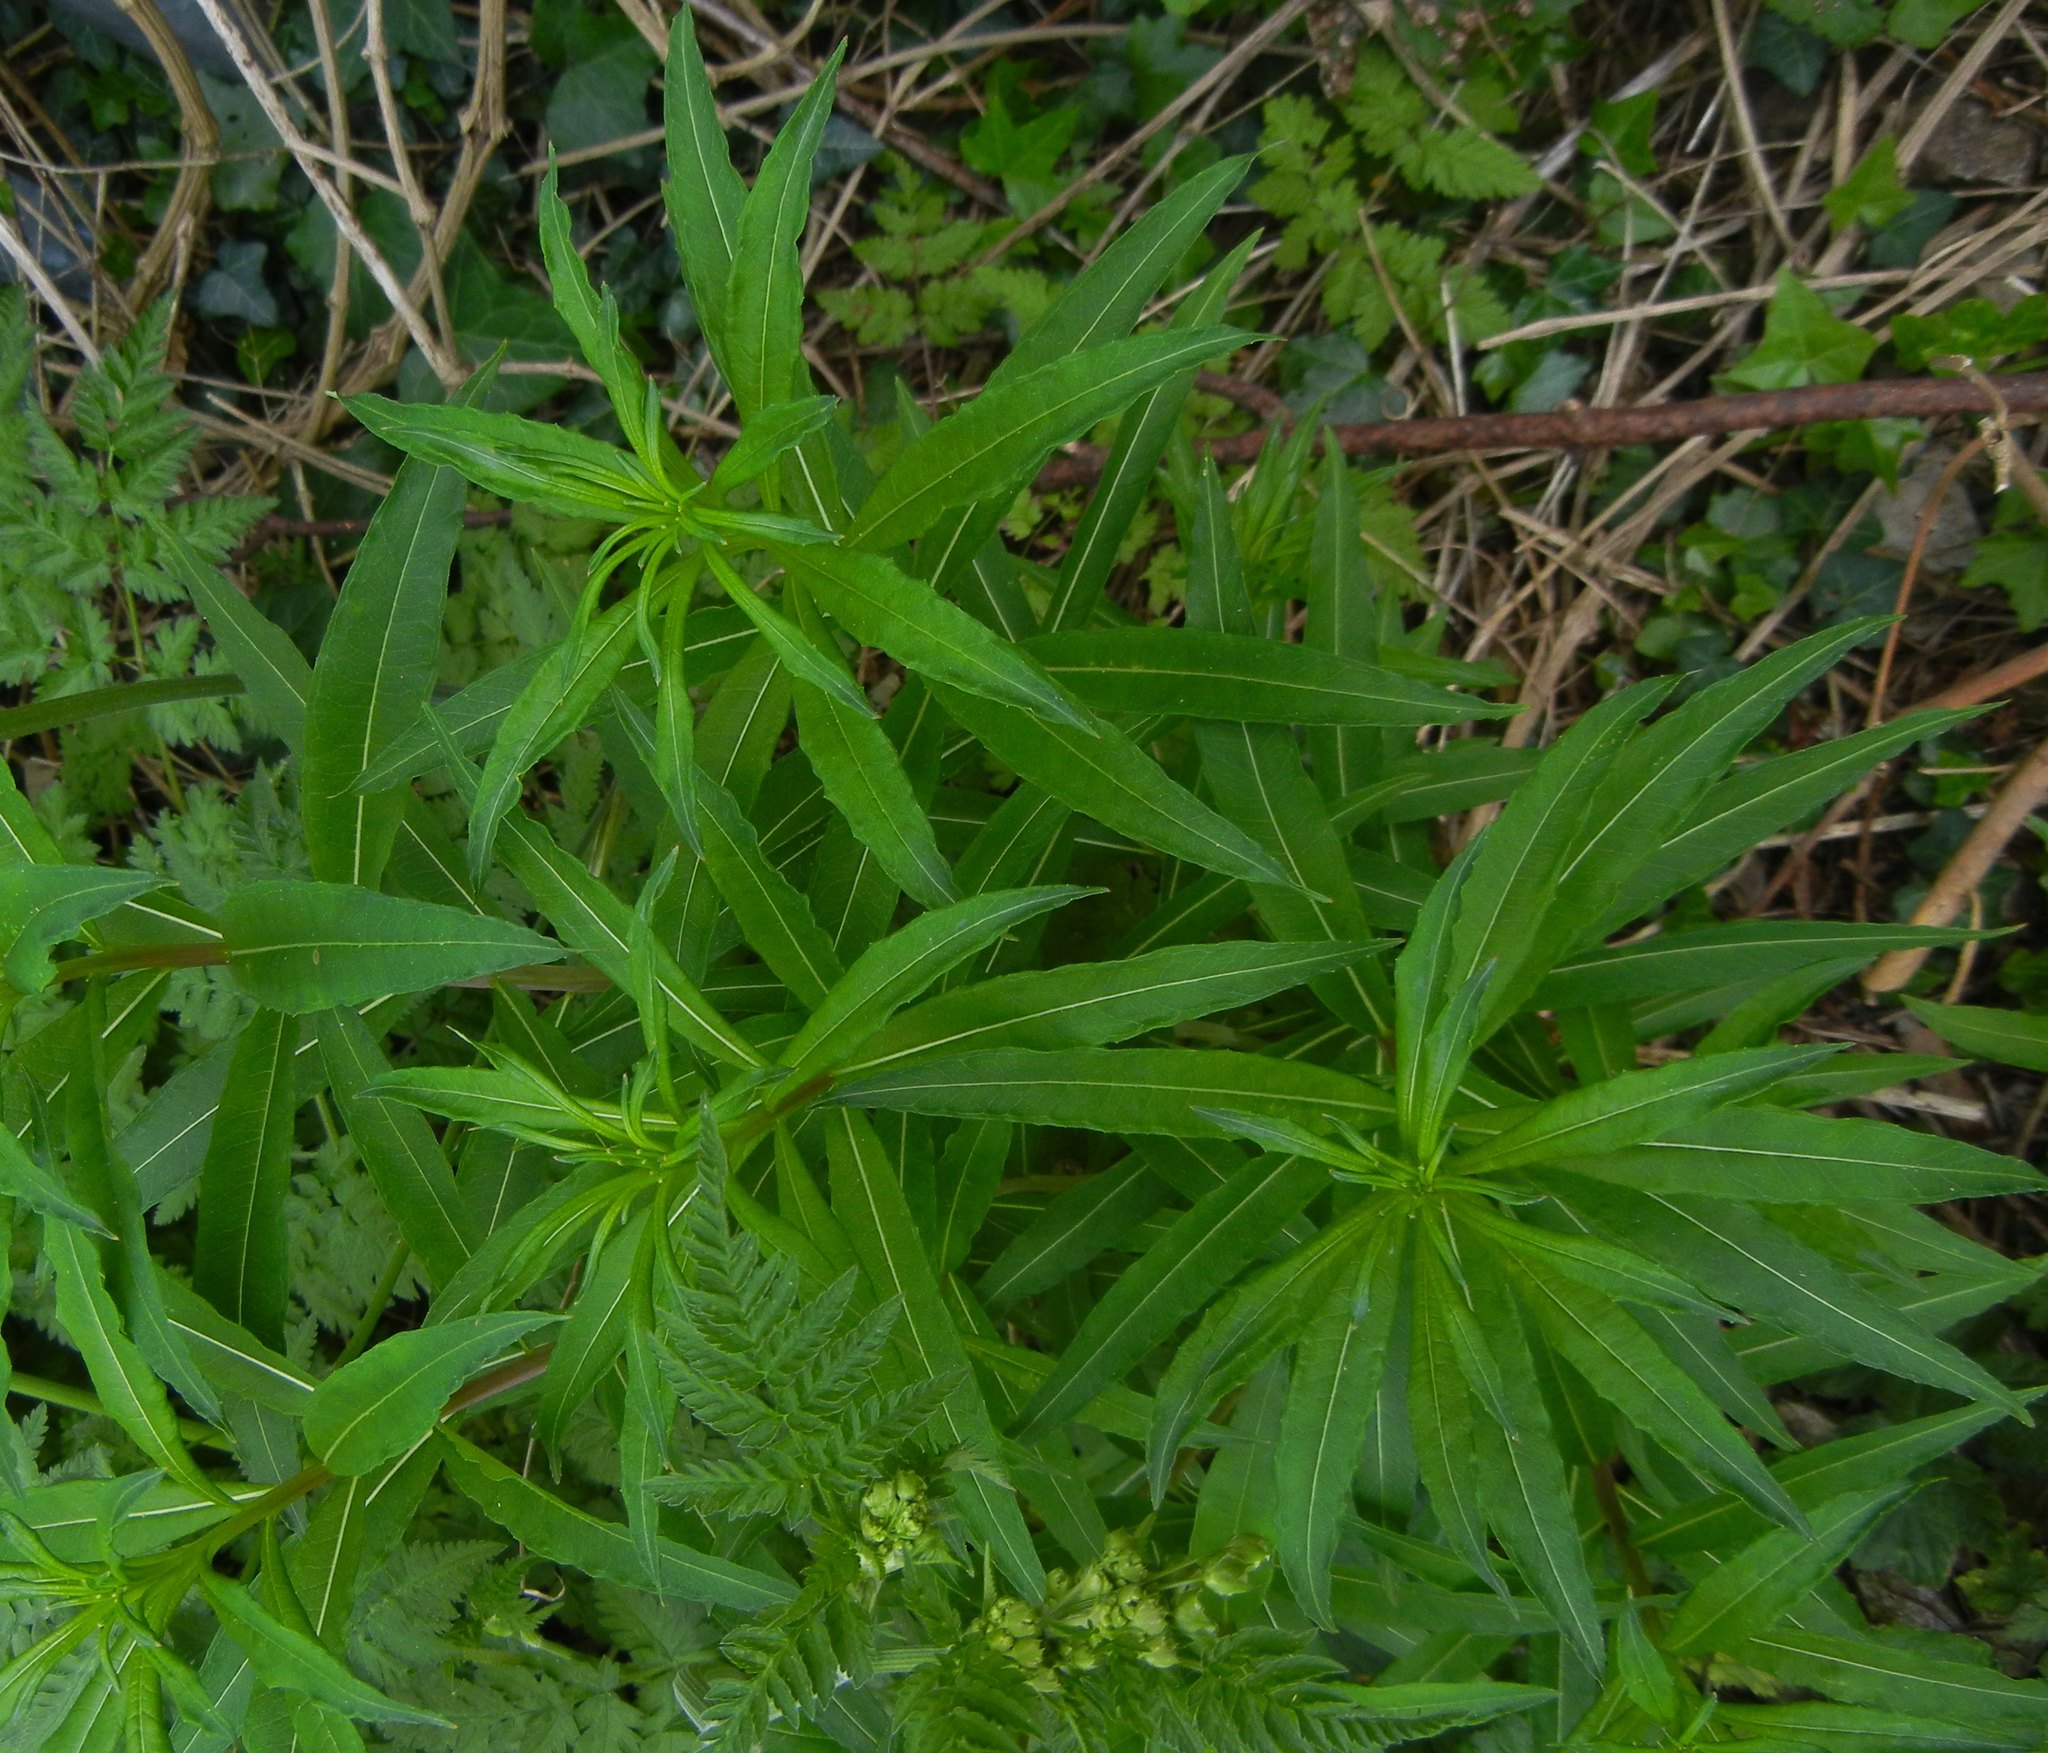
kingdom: Plantae
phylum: Tracheophyta
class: Magnoliopsida
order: Myrtales
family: Onagraceae
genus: Chamaenerion
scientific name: Chamaenerion angustifolium
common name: Fireweed
